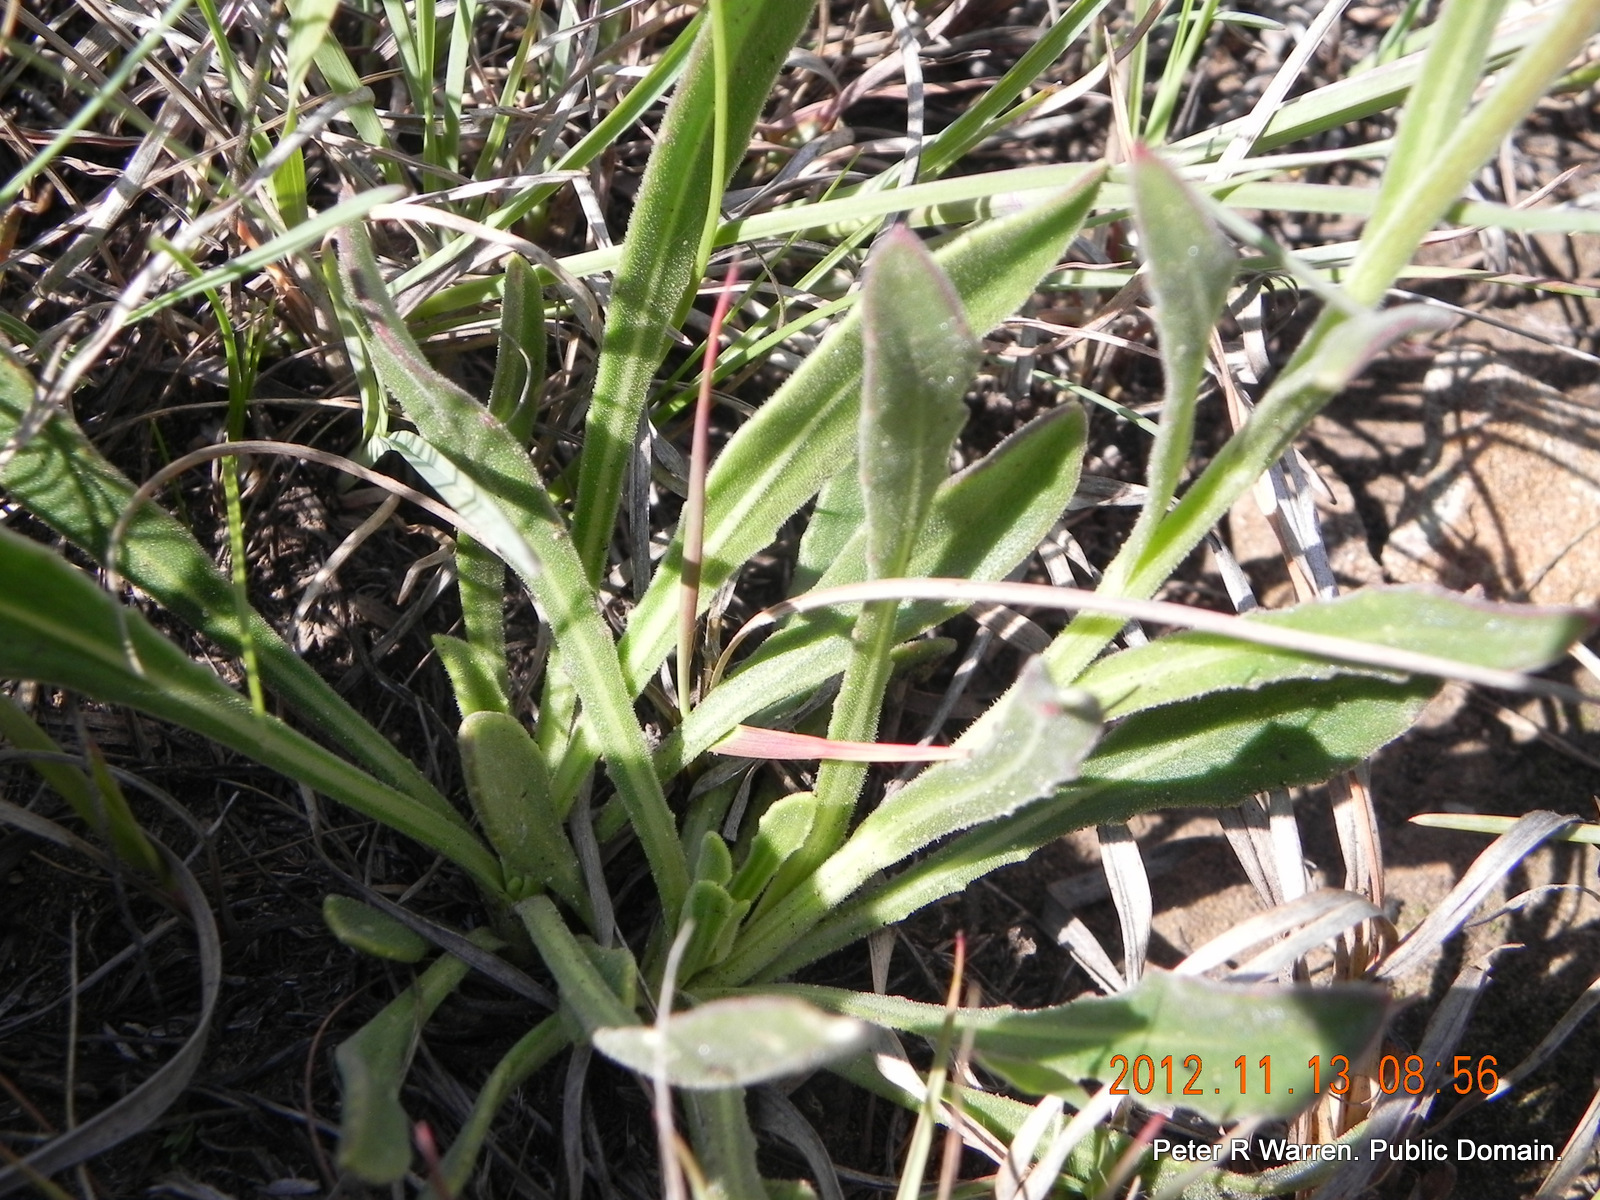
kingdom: Plantae
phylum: Tracheophyta
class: Magnoliopsida
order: Asterales
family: Asteraceae
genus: Dimorphotheca
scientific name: Dimorphotheca jucunda
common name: Osteospermum
